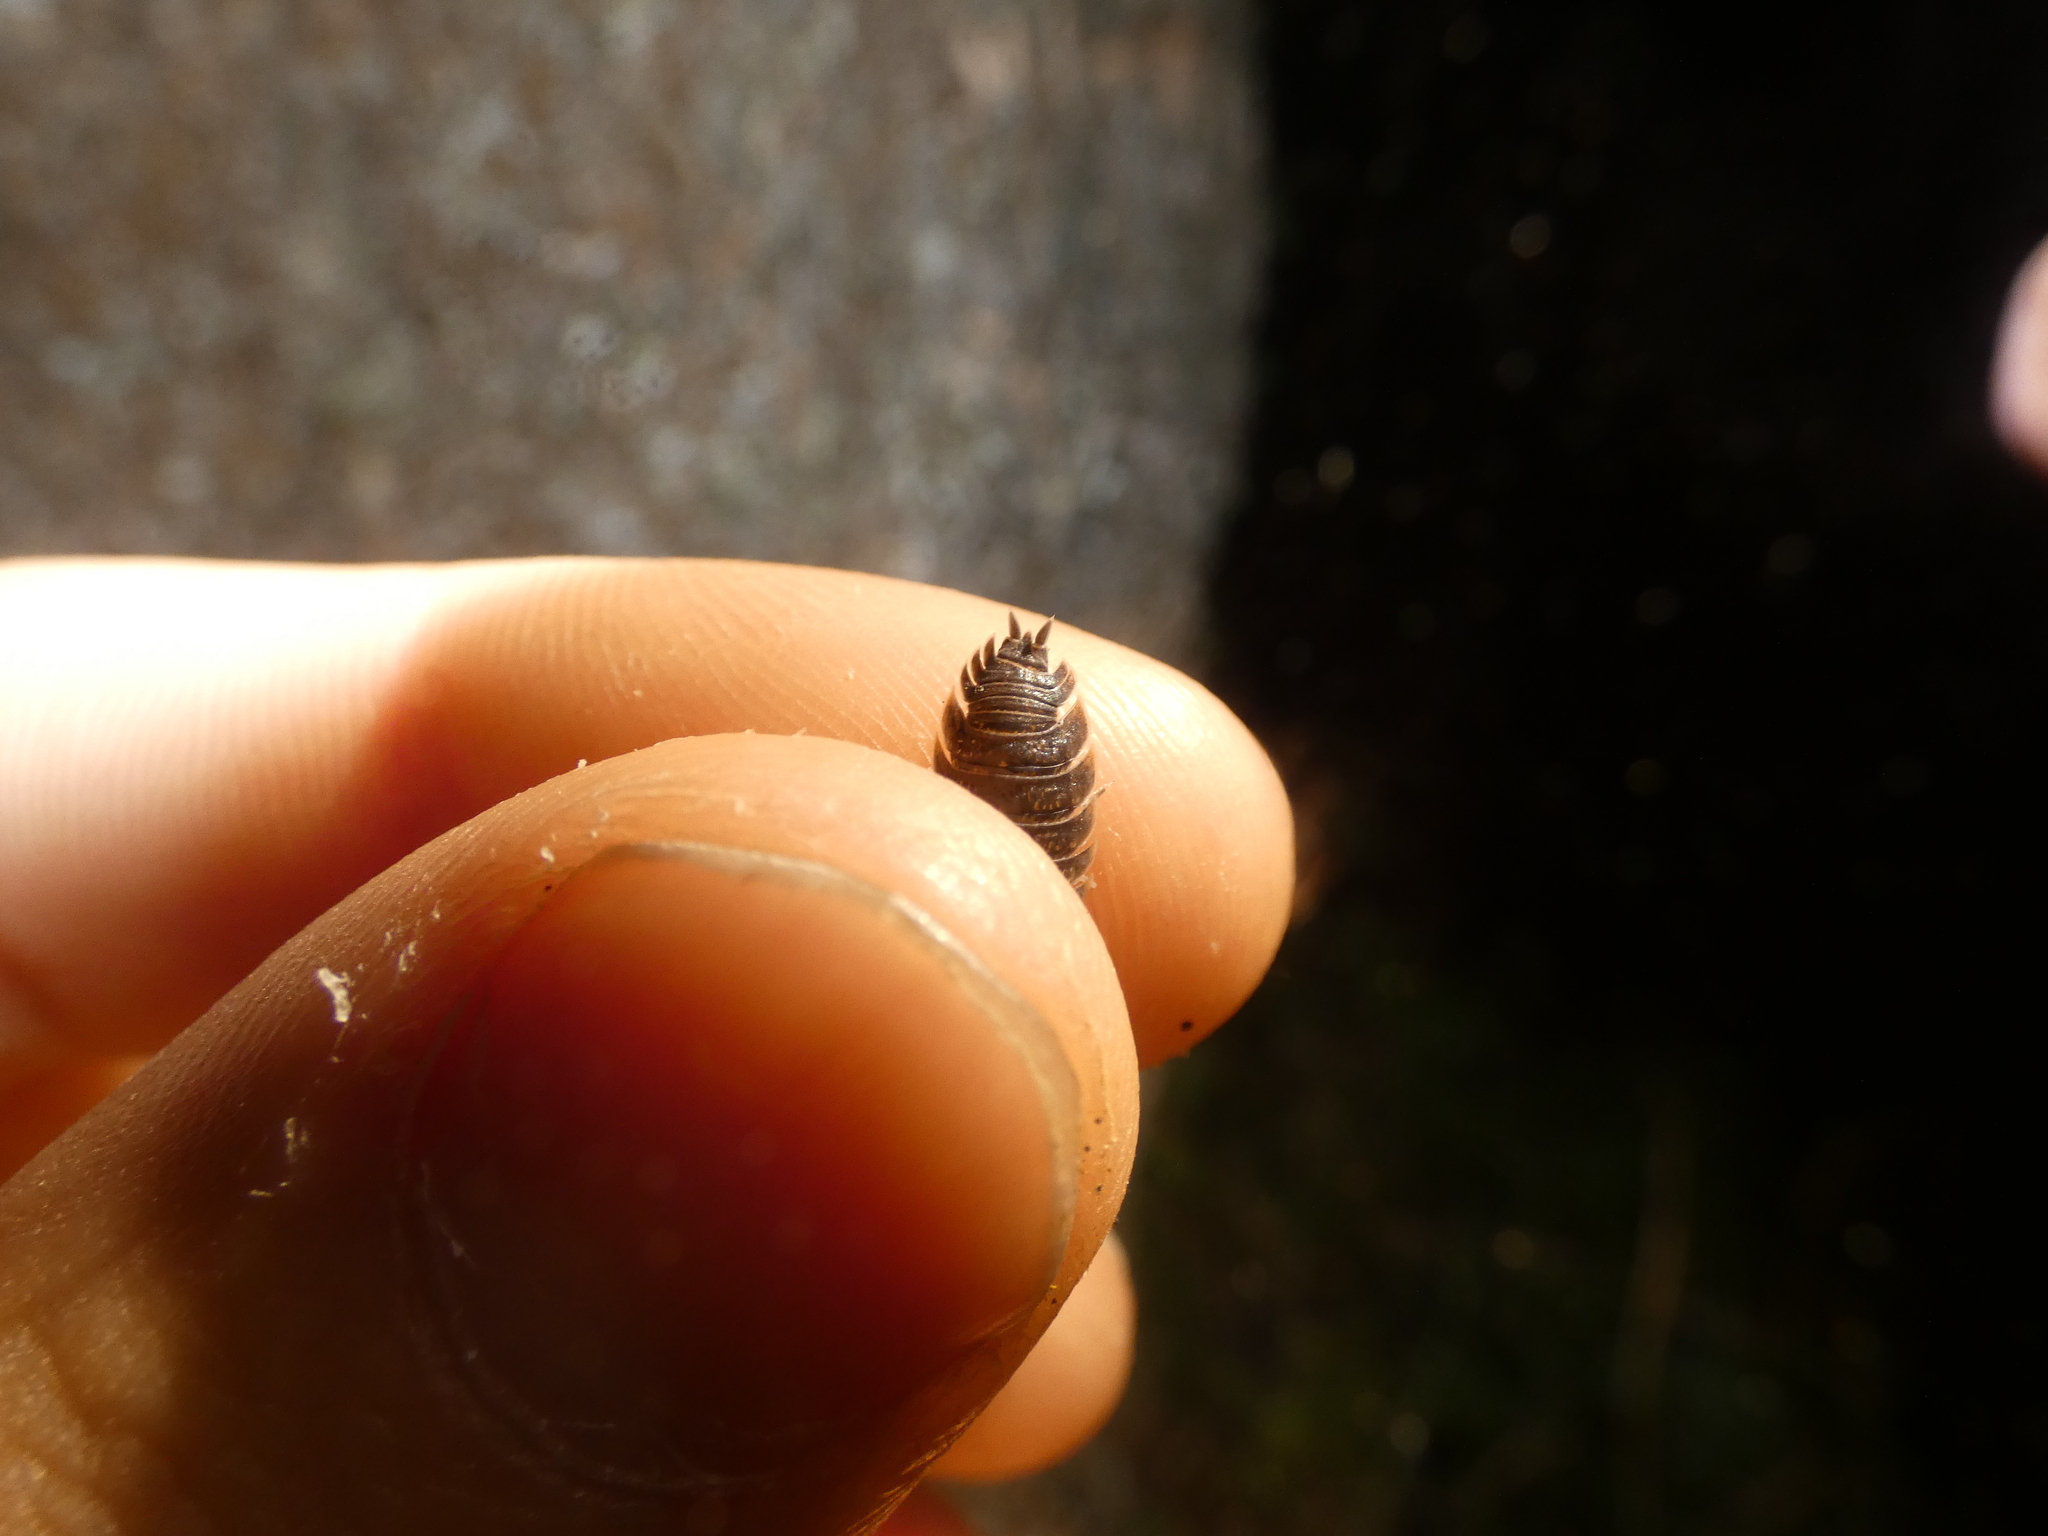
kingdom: Animalia
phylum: Arthropoda
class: Malacostraca
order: Isopoda
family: Porcellionidae
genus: Porcellio
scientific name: Porcellio scaber
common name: Common rough woodlouse
